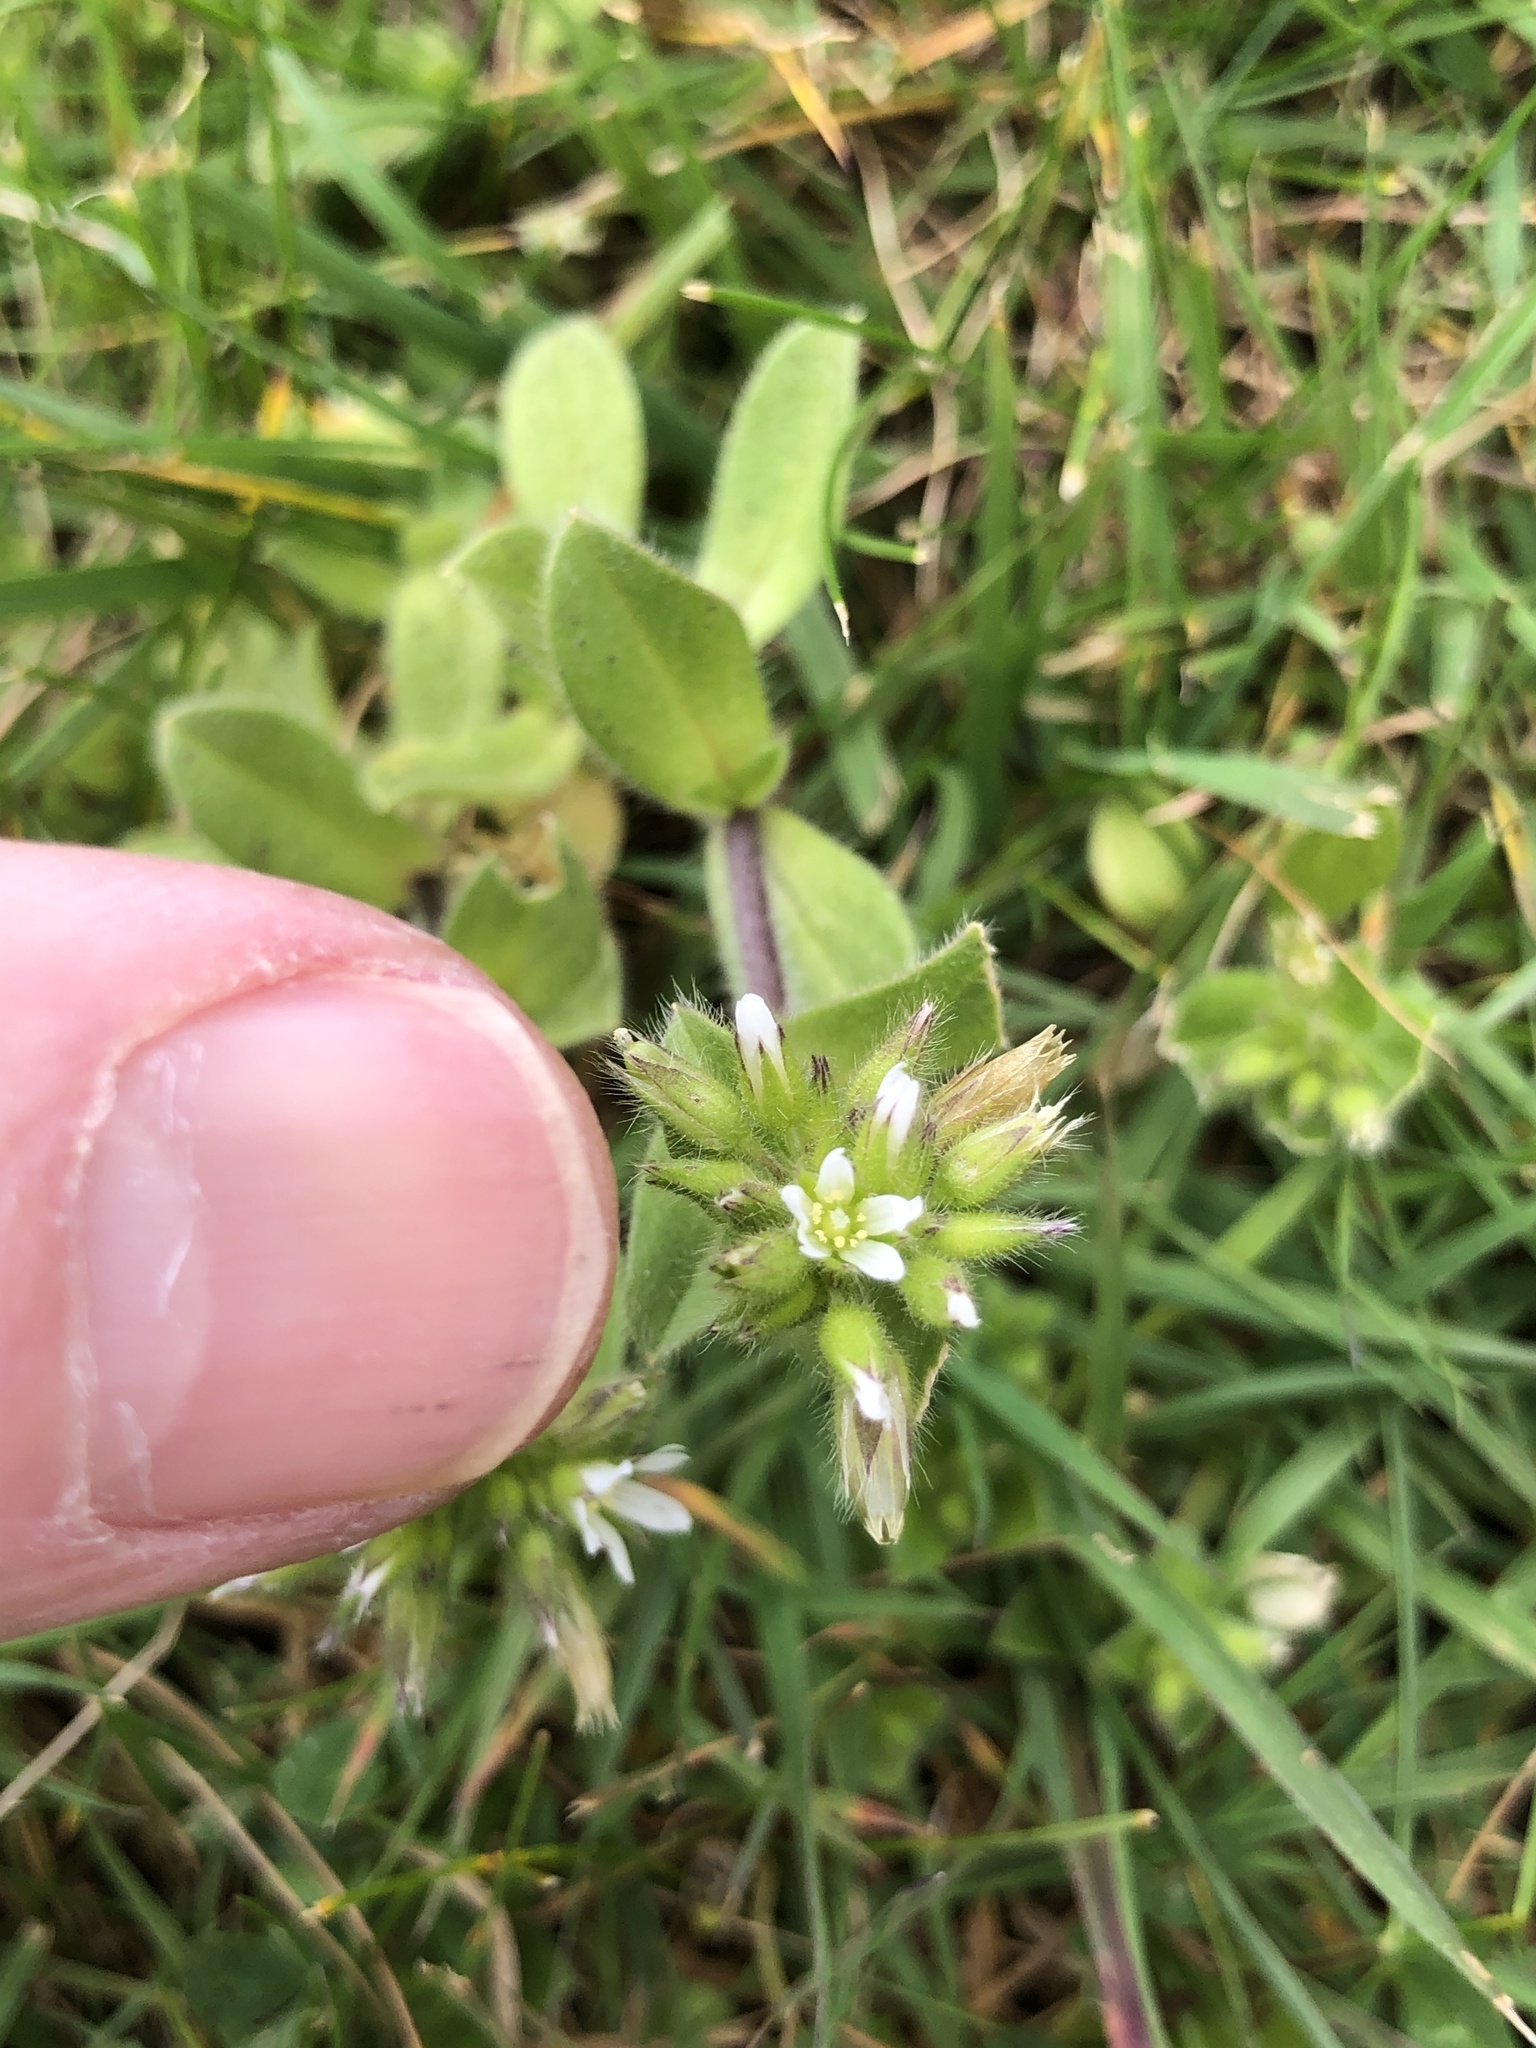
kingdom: Plantae
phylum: Tracheophyta
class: Magnoliopsida
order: Caryophyllales
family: Caryophyllaceae
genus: Cerastium
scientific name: Cerastium glomeratum
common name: Sticky chickweed
